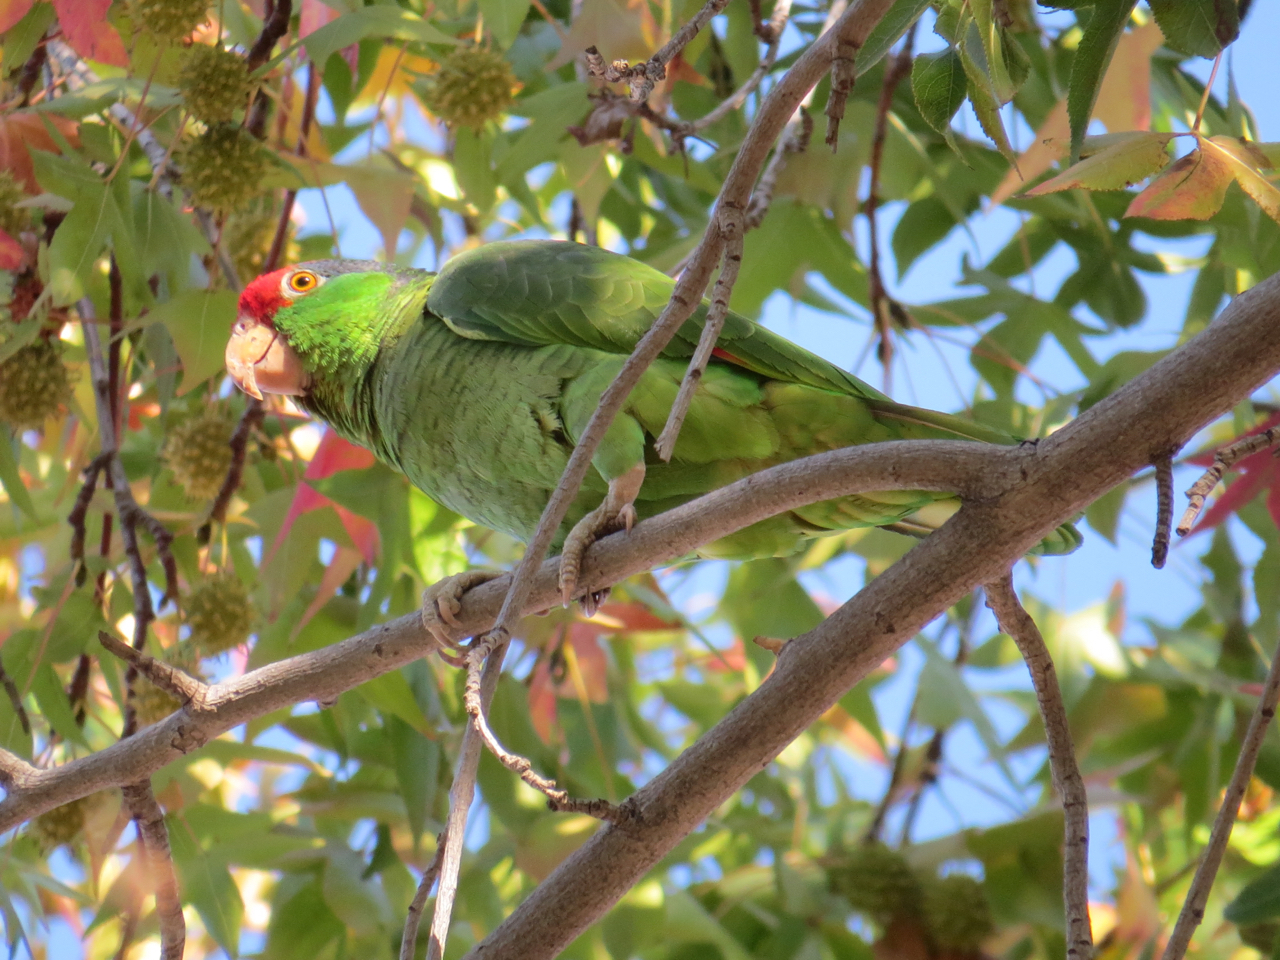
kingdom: Animalia
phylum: Chordata
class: Aves
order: Psittaciformes
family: Psittacidae
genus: Amazona
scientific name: Amazona viridigenalis
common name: Red-crowned amazon
